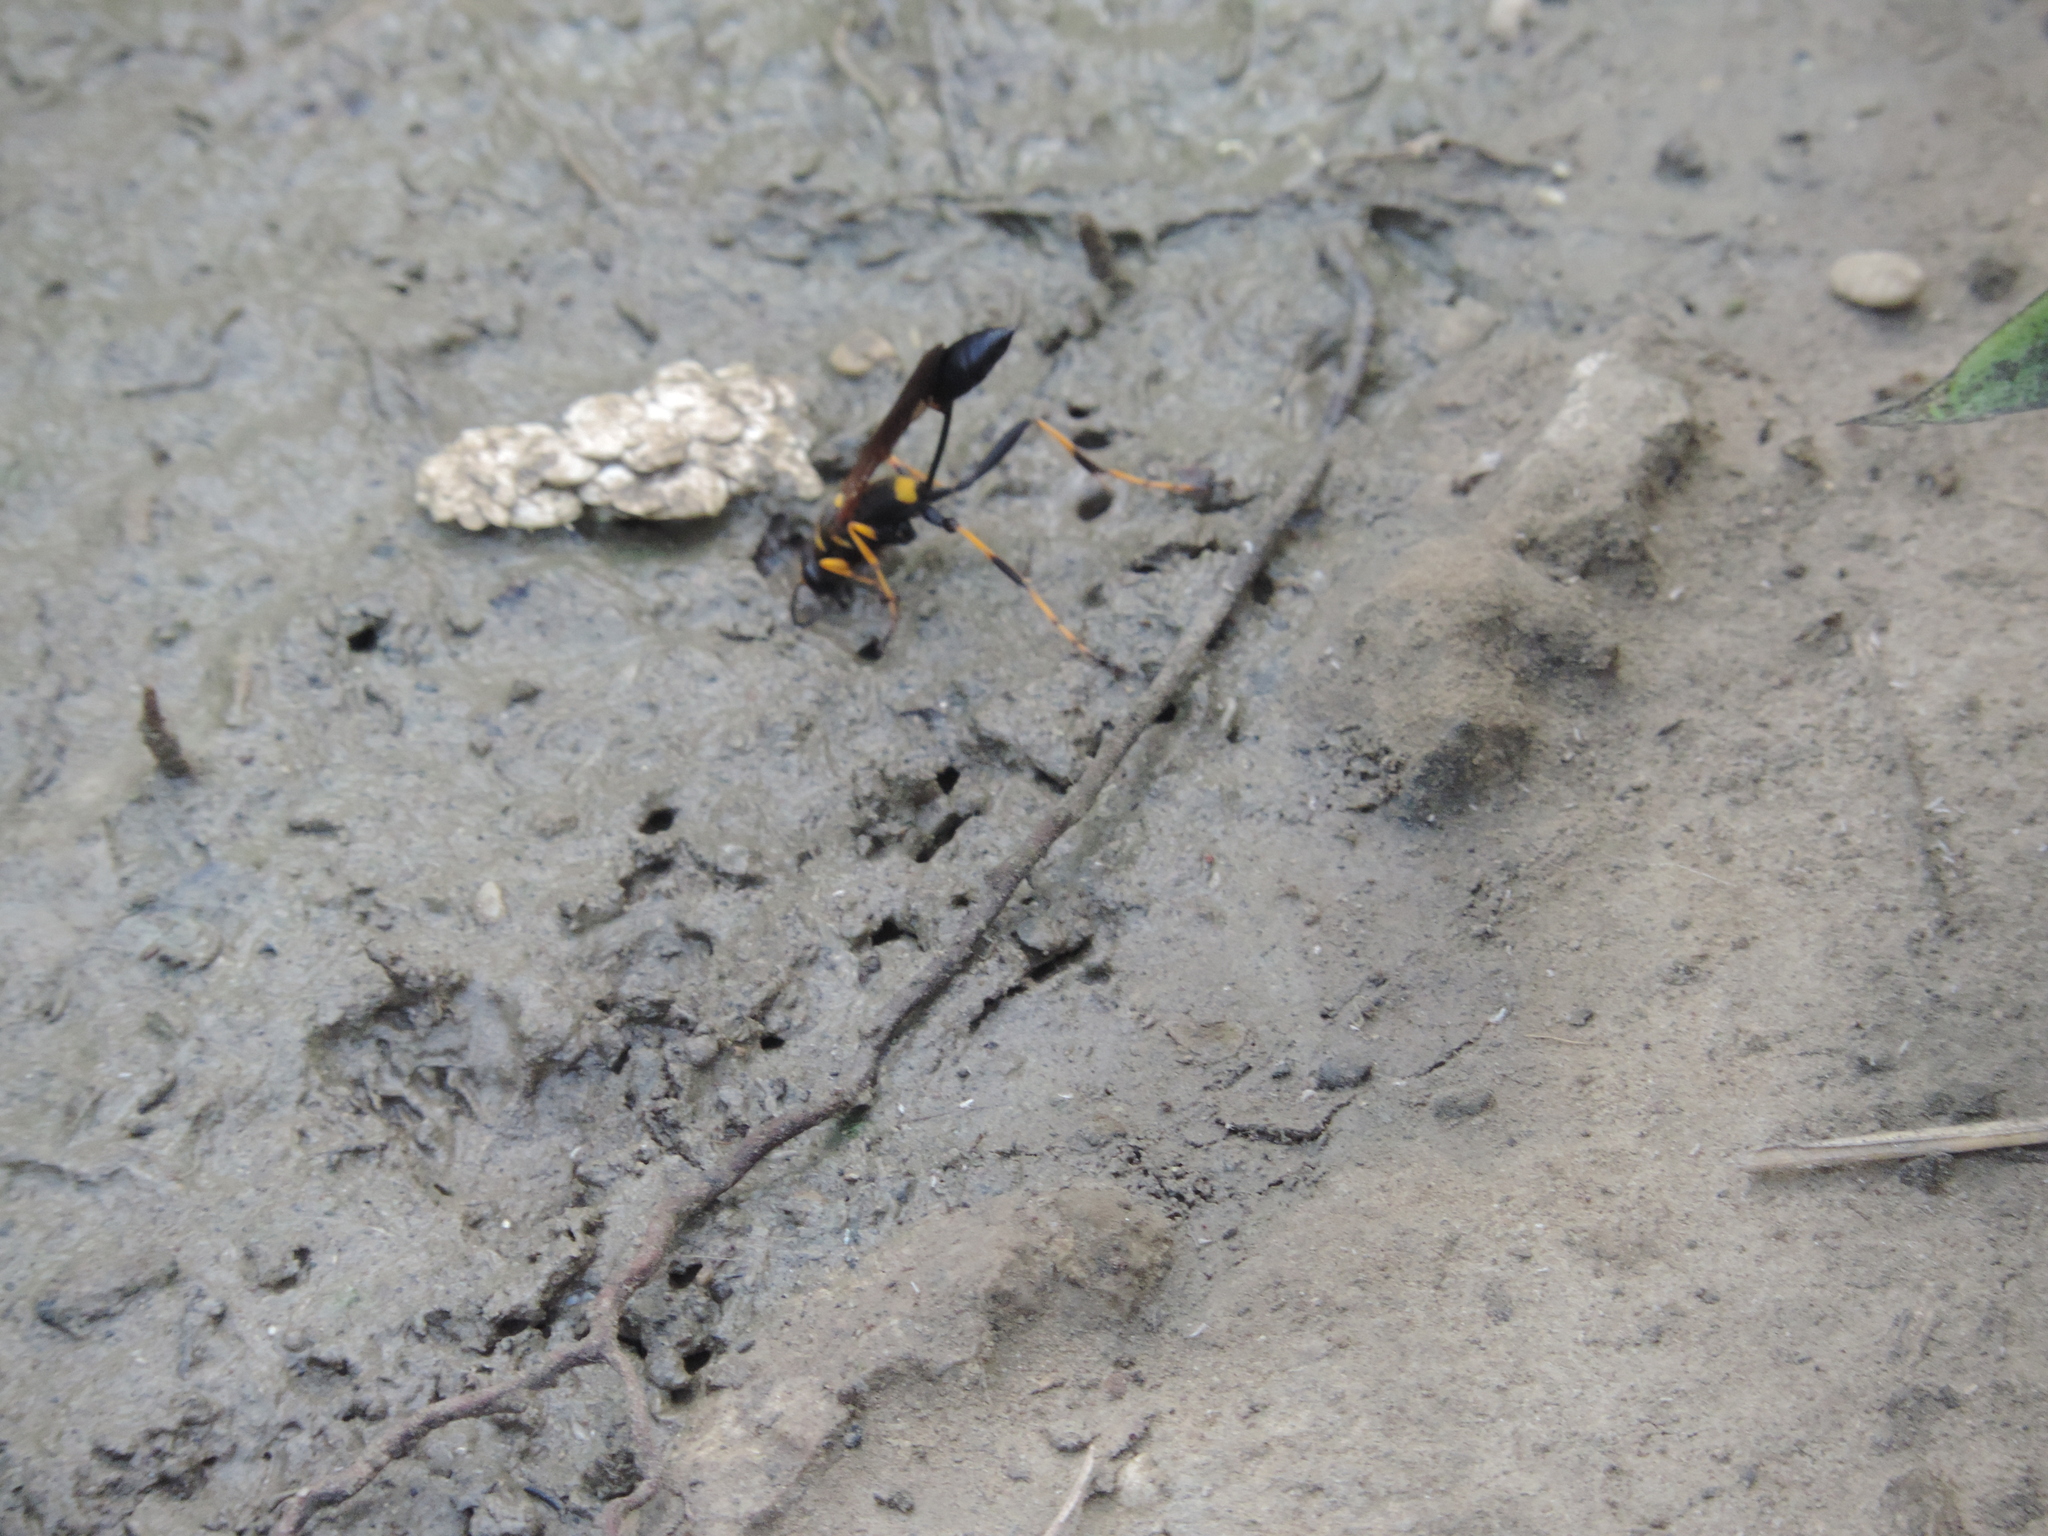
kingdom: Animalia
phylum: Arthropoda
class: Insecta
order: Hymenoptera
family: Sphecidae
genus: Sceliphron
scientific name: Sceliphron caementarium
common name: Mud dauber
